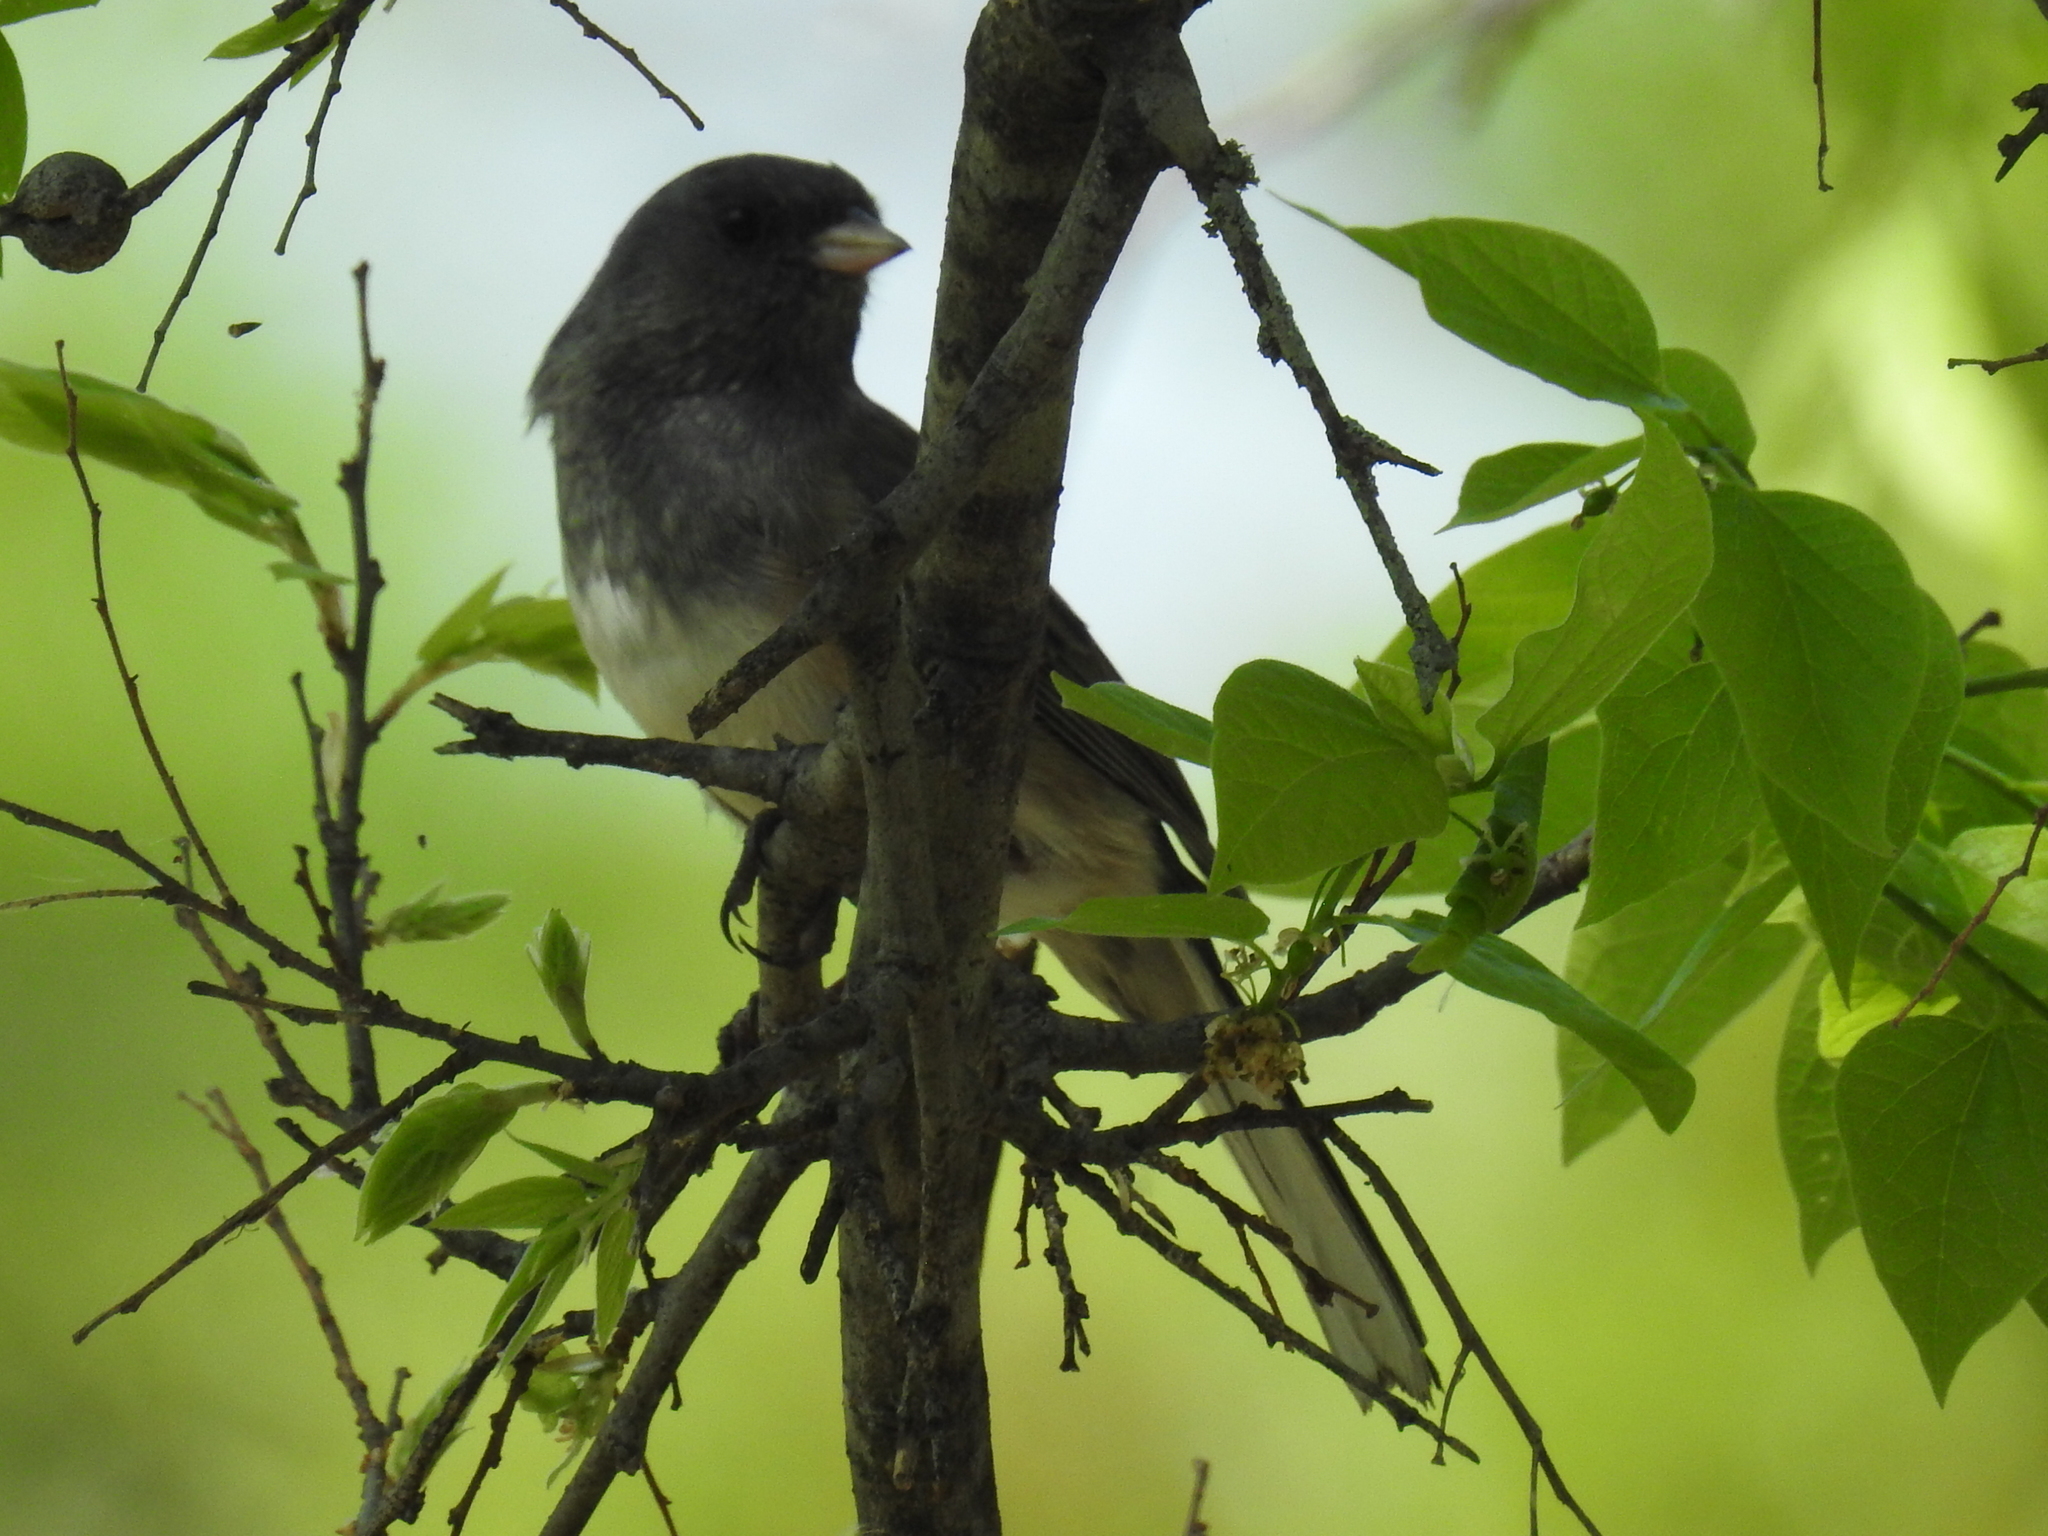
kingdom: Animalia
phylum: Chordata
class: Aves
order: Passeriformes
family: Passerellidae
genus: Junco
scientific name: Junco hyemalis
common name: Dark-eyed junco
